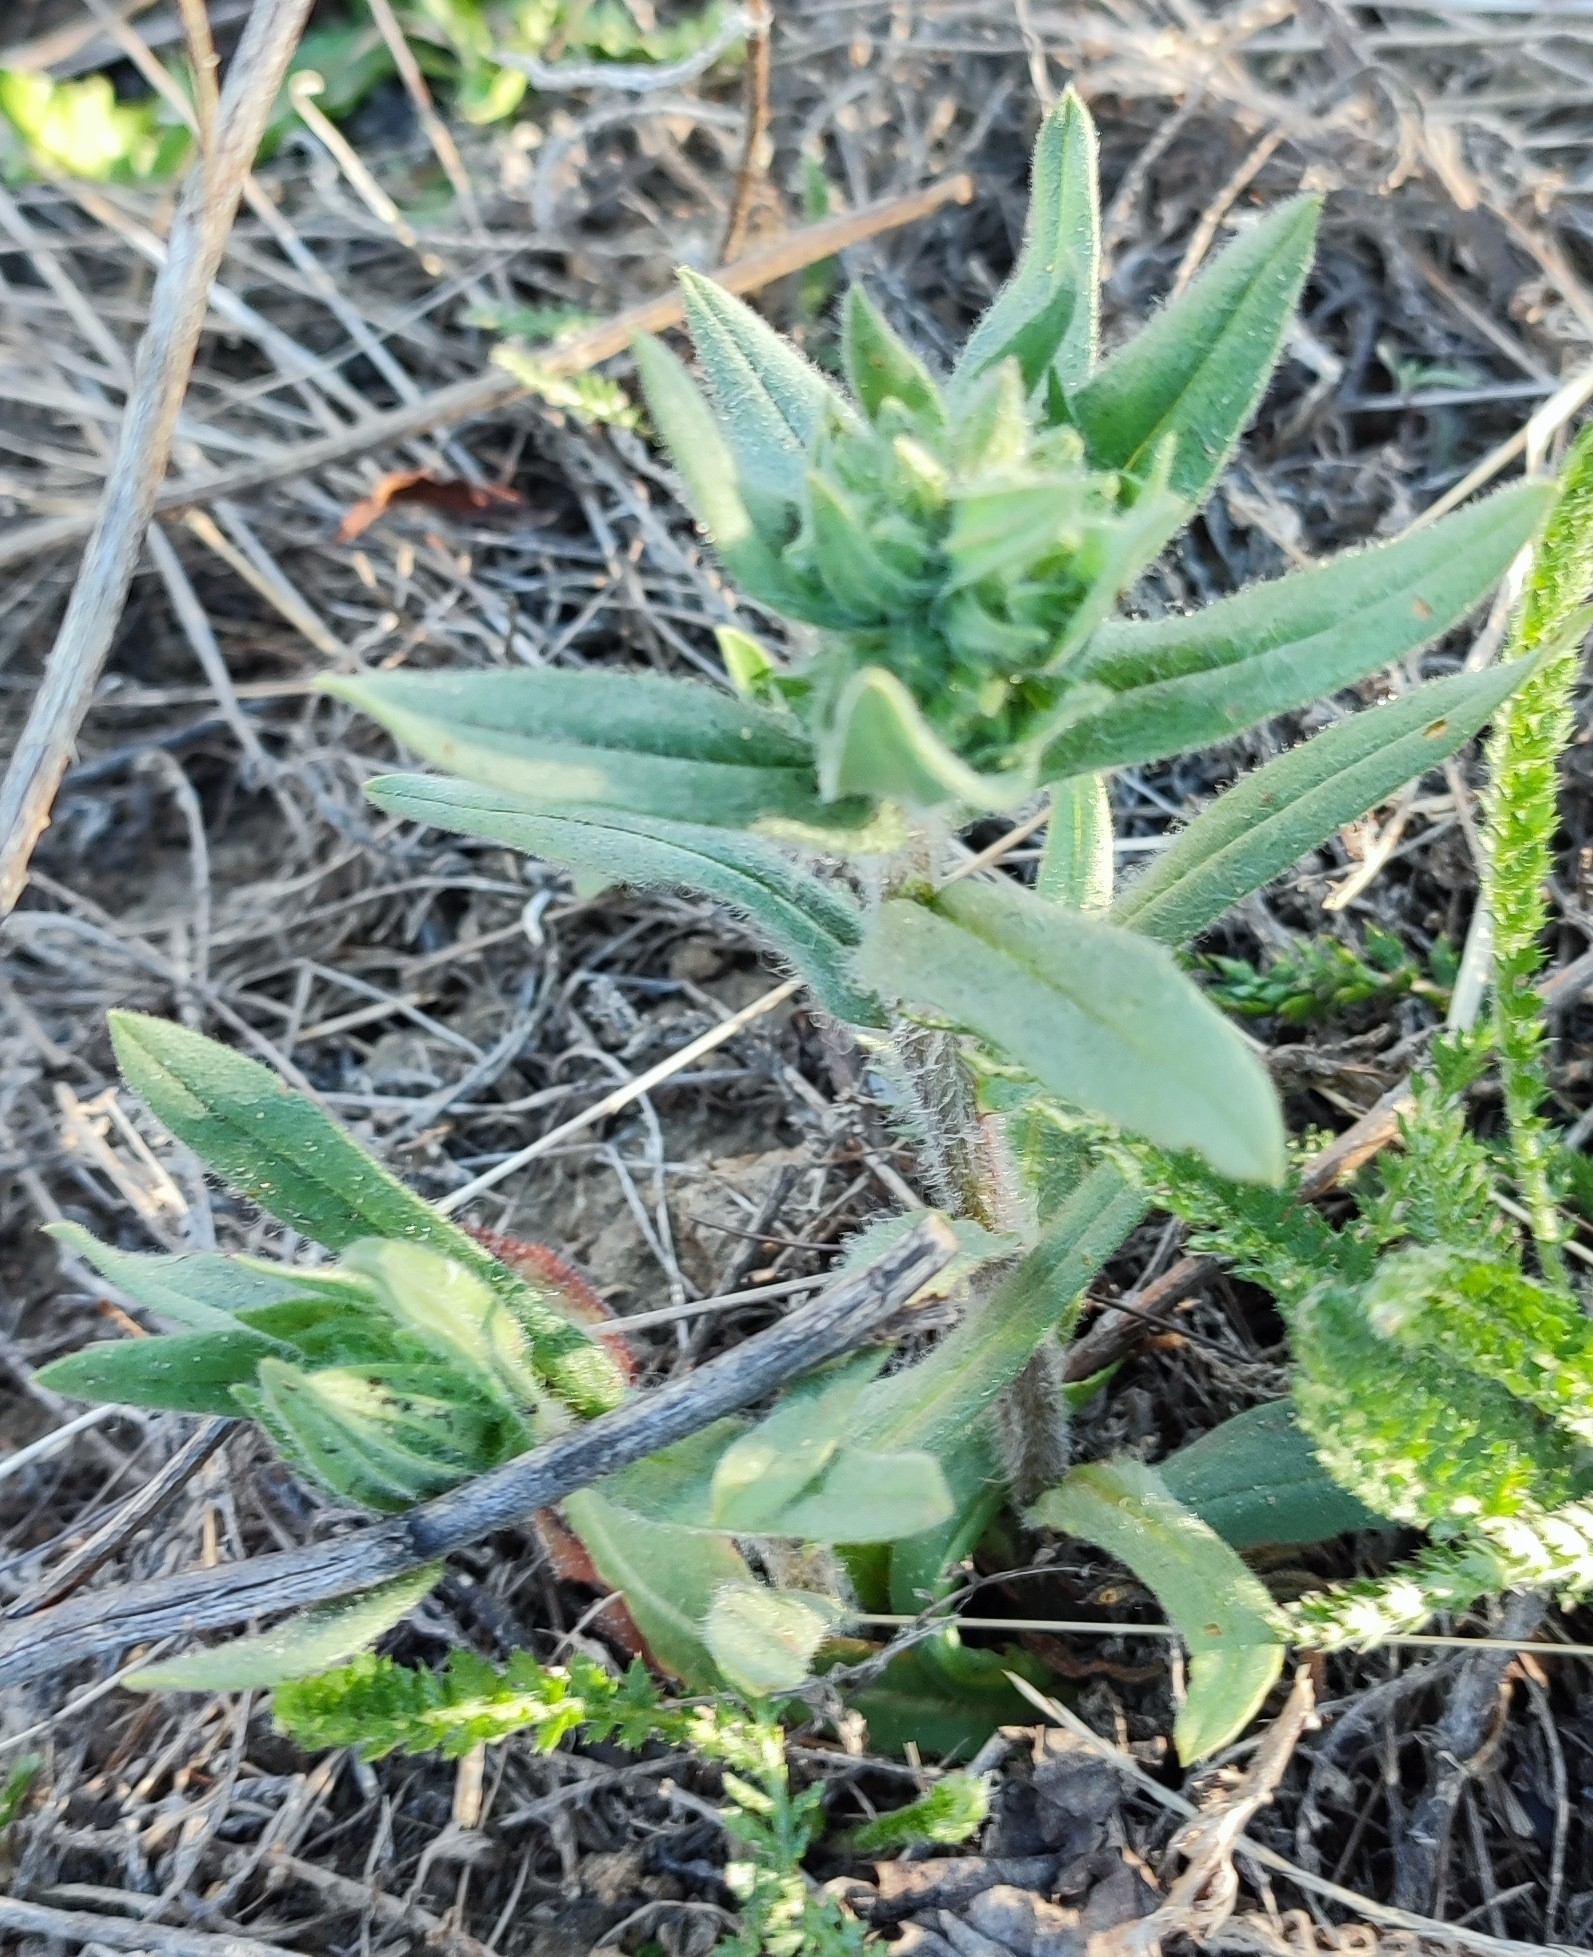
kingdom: Plantae
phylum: Tracheophyta
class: Magnoliopsida
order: Boraginales
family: Boraginaceae
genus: Nonea
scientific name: Nonea pulla
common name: Brown nonea
